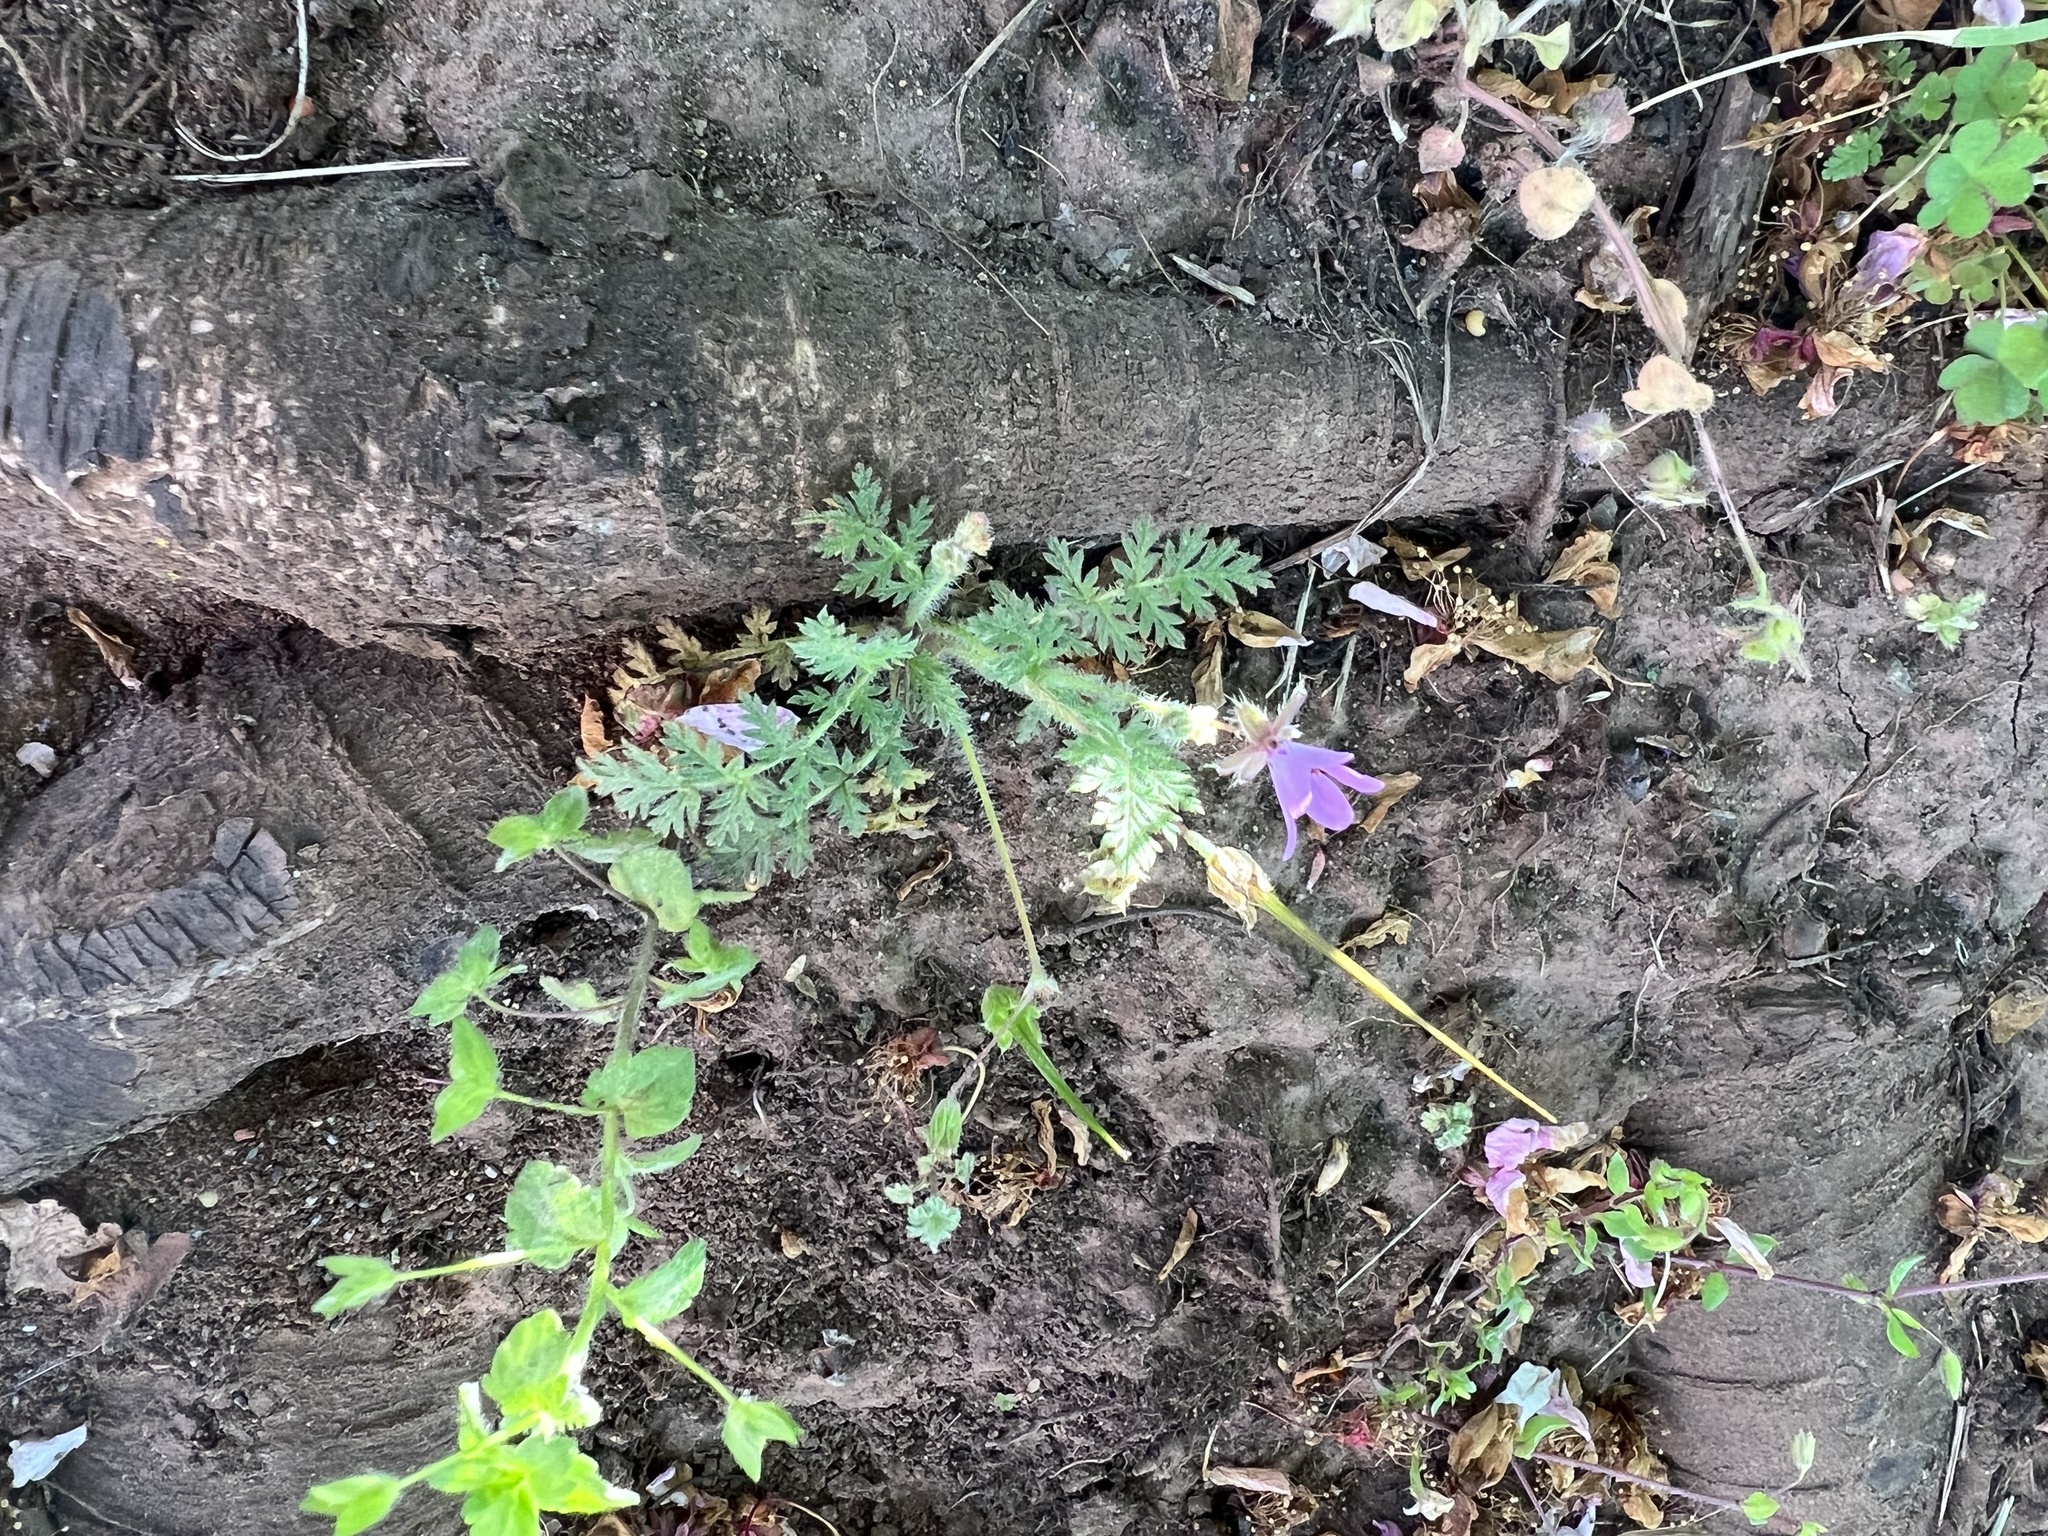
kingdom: Plantae
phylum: Tracheophyta
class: Magnoliopsida
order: Geraniales
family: Geraniaceae
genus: Erodium
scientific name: Erodium cicutarium
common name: Common stork's-bill
